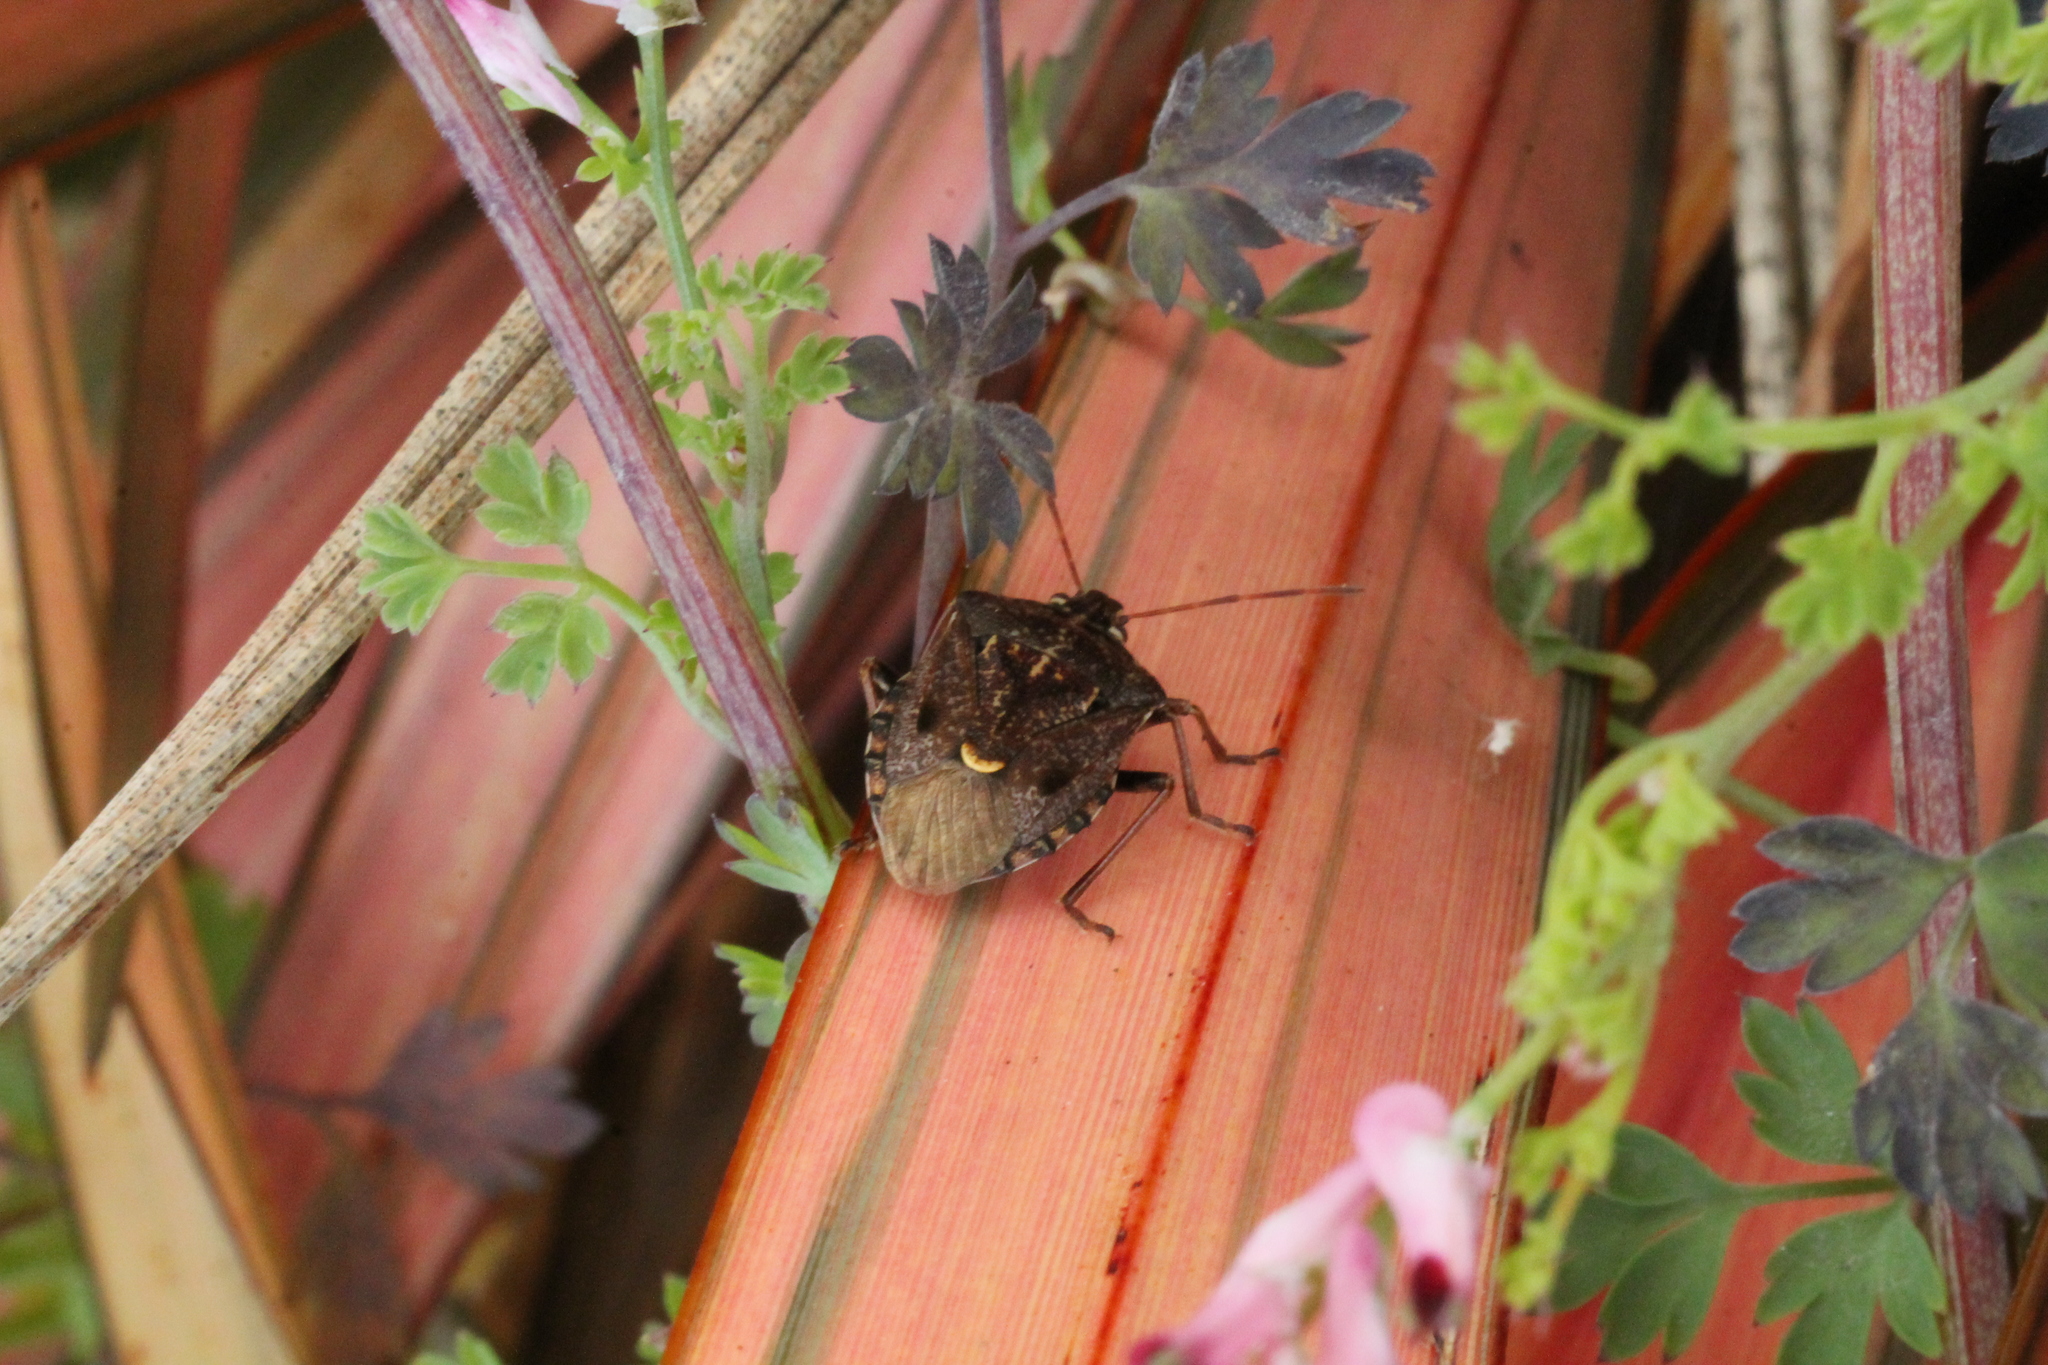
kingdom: Animalia
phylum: Arthropoda
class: Insecta
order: Hemiptera
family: Pentatomidae
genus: Cermatulus
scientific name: Cermatulus nasalis
